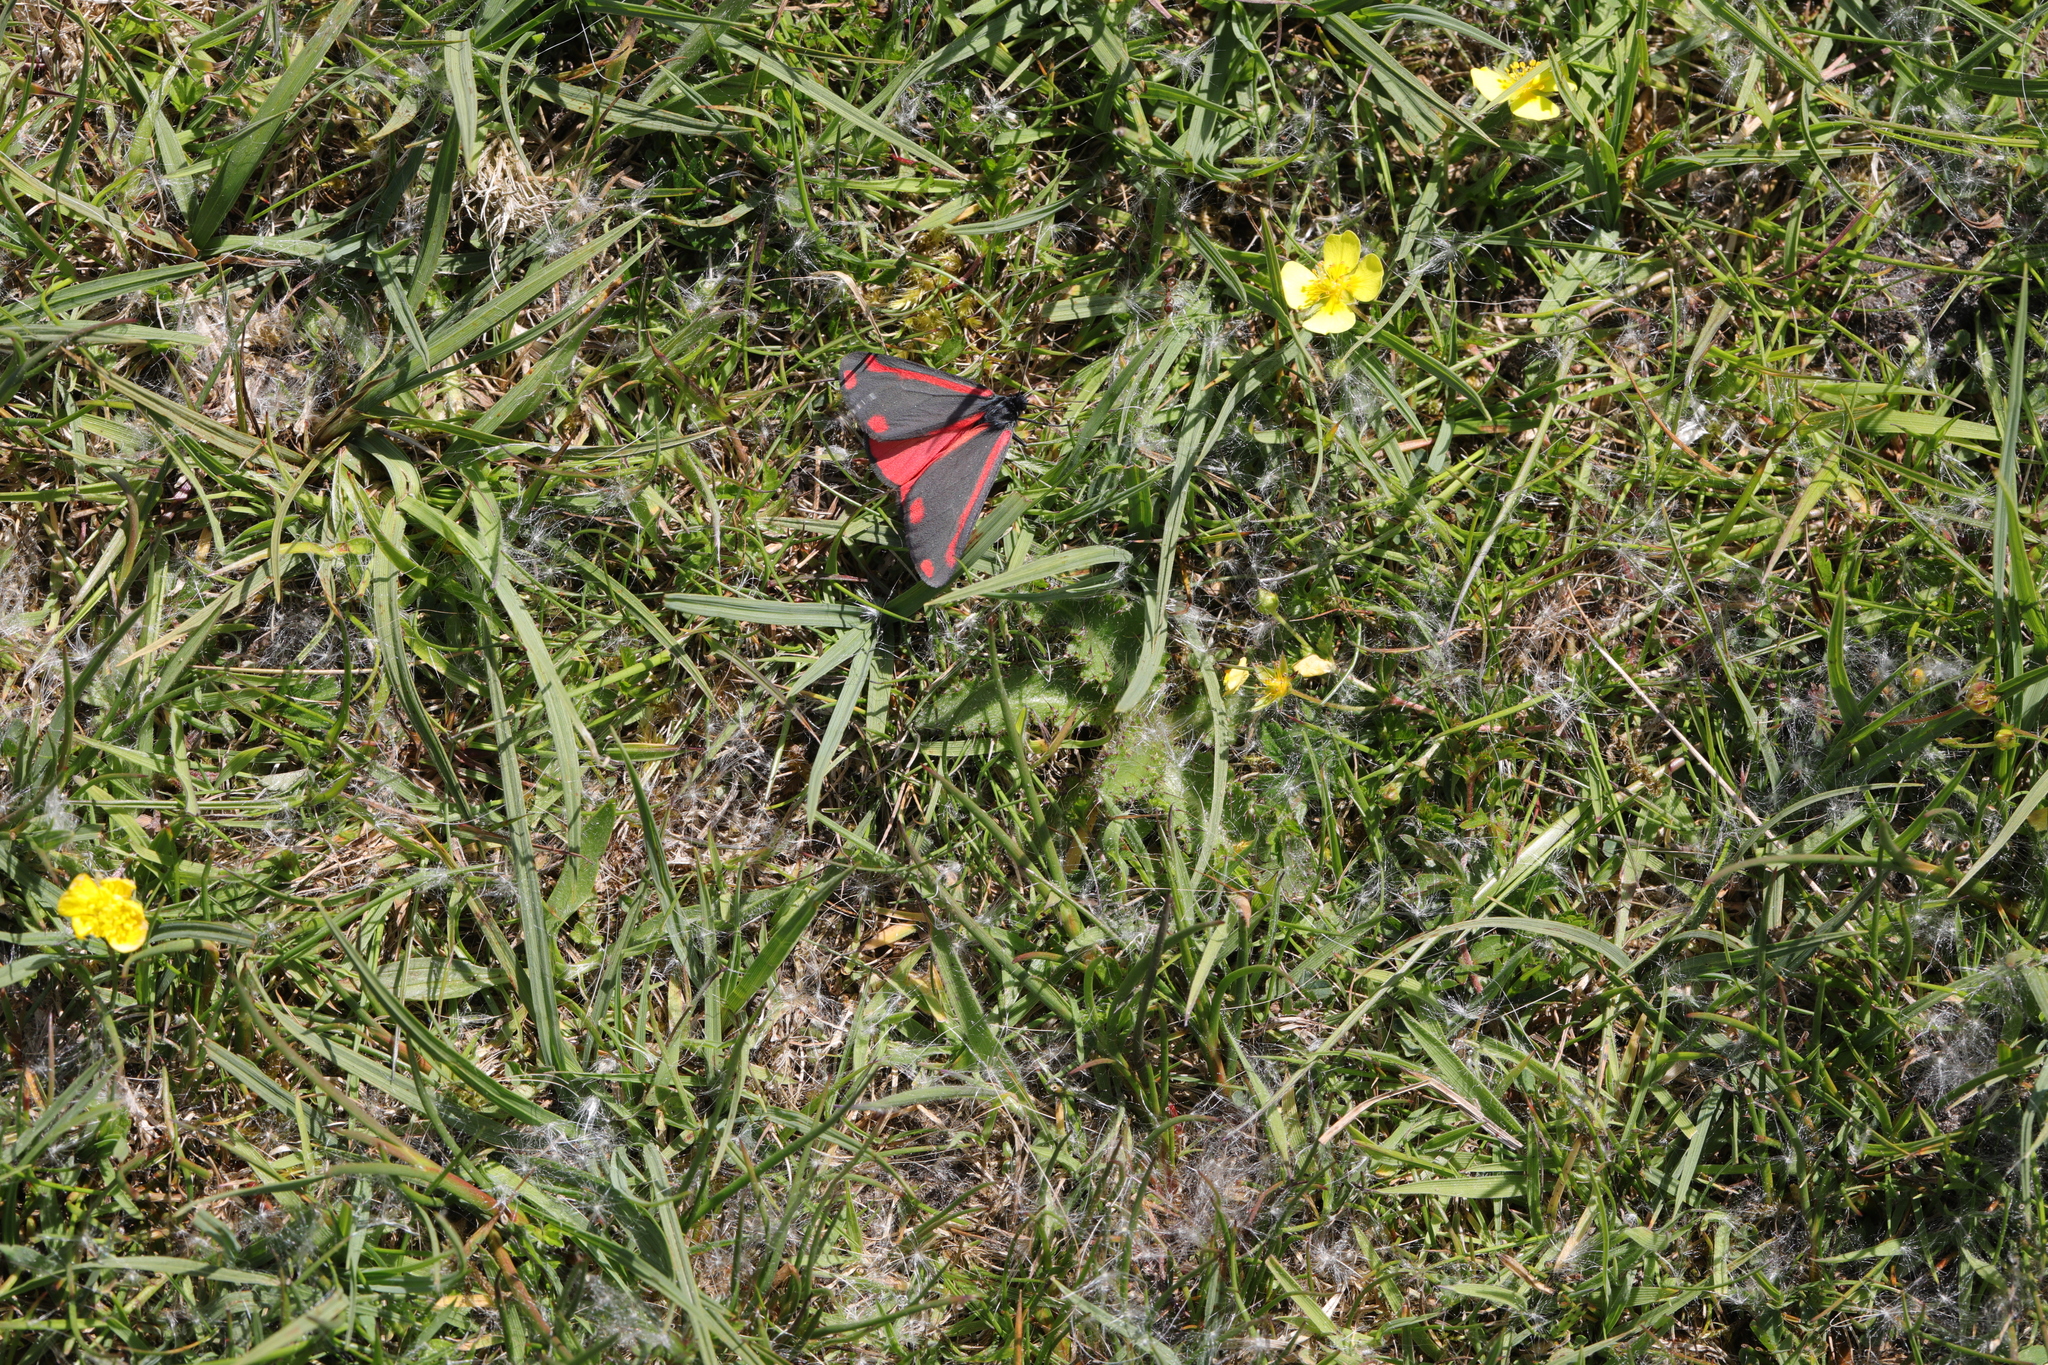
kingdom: Animalia
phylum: Arthropoda
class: Insecta
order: Lepidoptera
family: Erebidae
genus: Tyria
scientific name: Tyria jacobaeae
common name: Cinnabar
